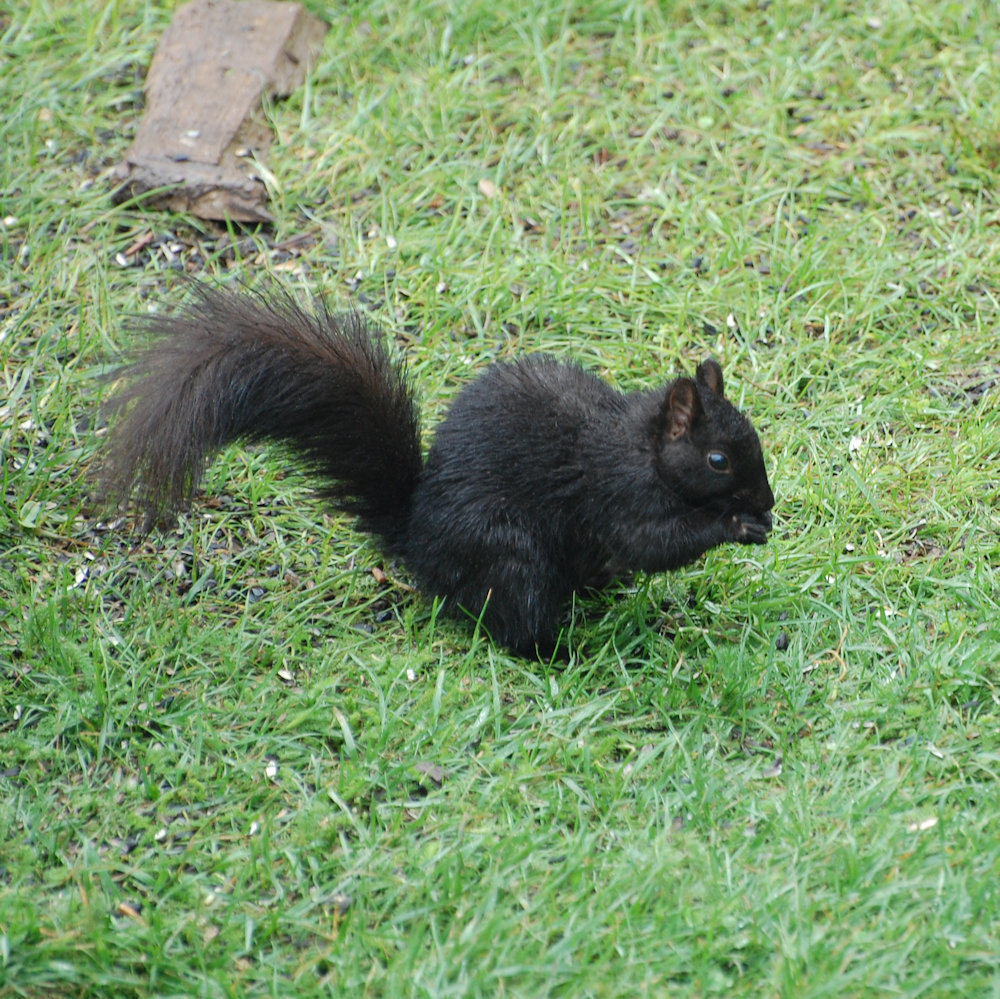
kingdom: Animalia
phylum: Chordata
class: Mammalia
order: Rodentia
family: Sciuridae
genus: Sciurus
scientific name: Sciurus carolinensis
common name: Eastern gray squirrel
